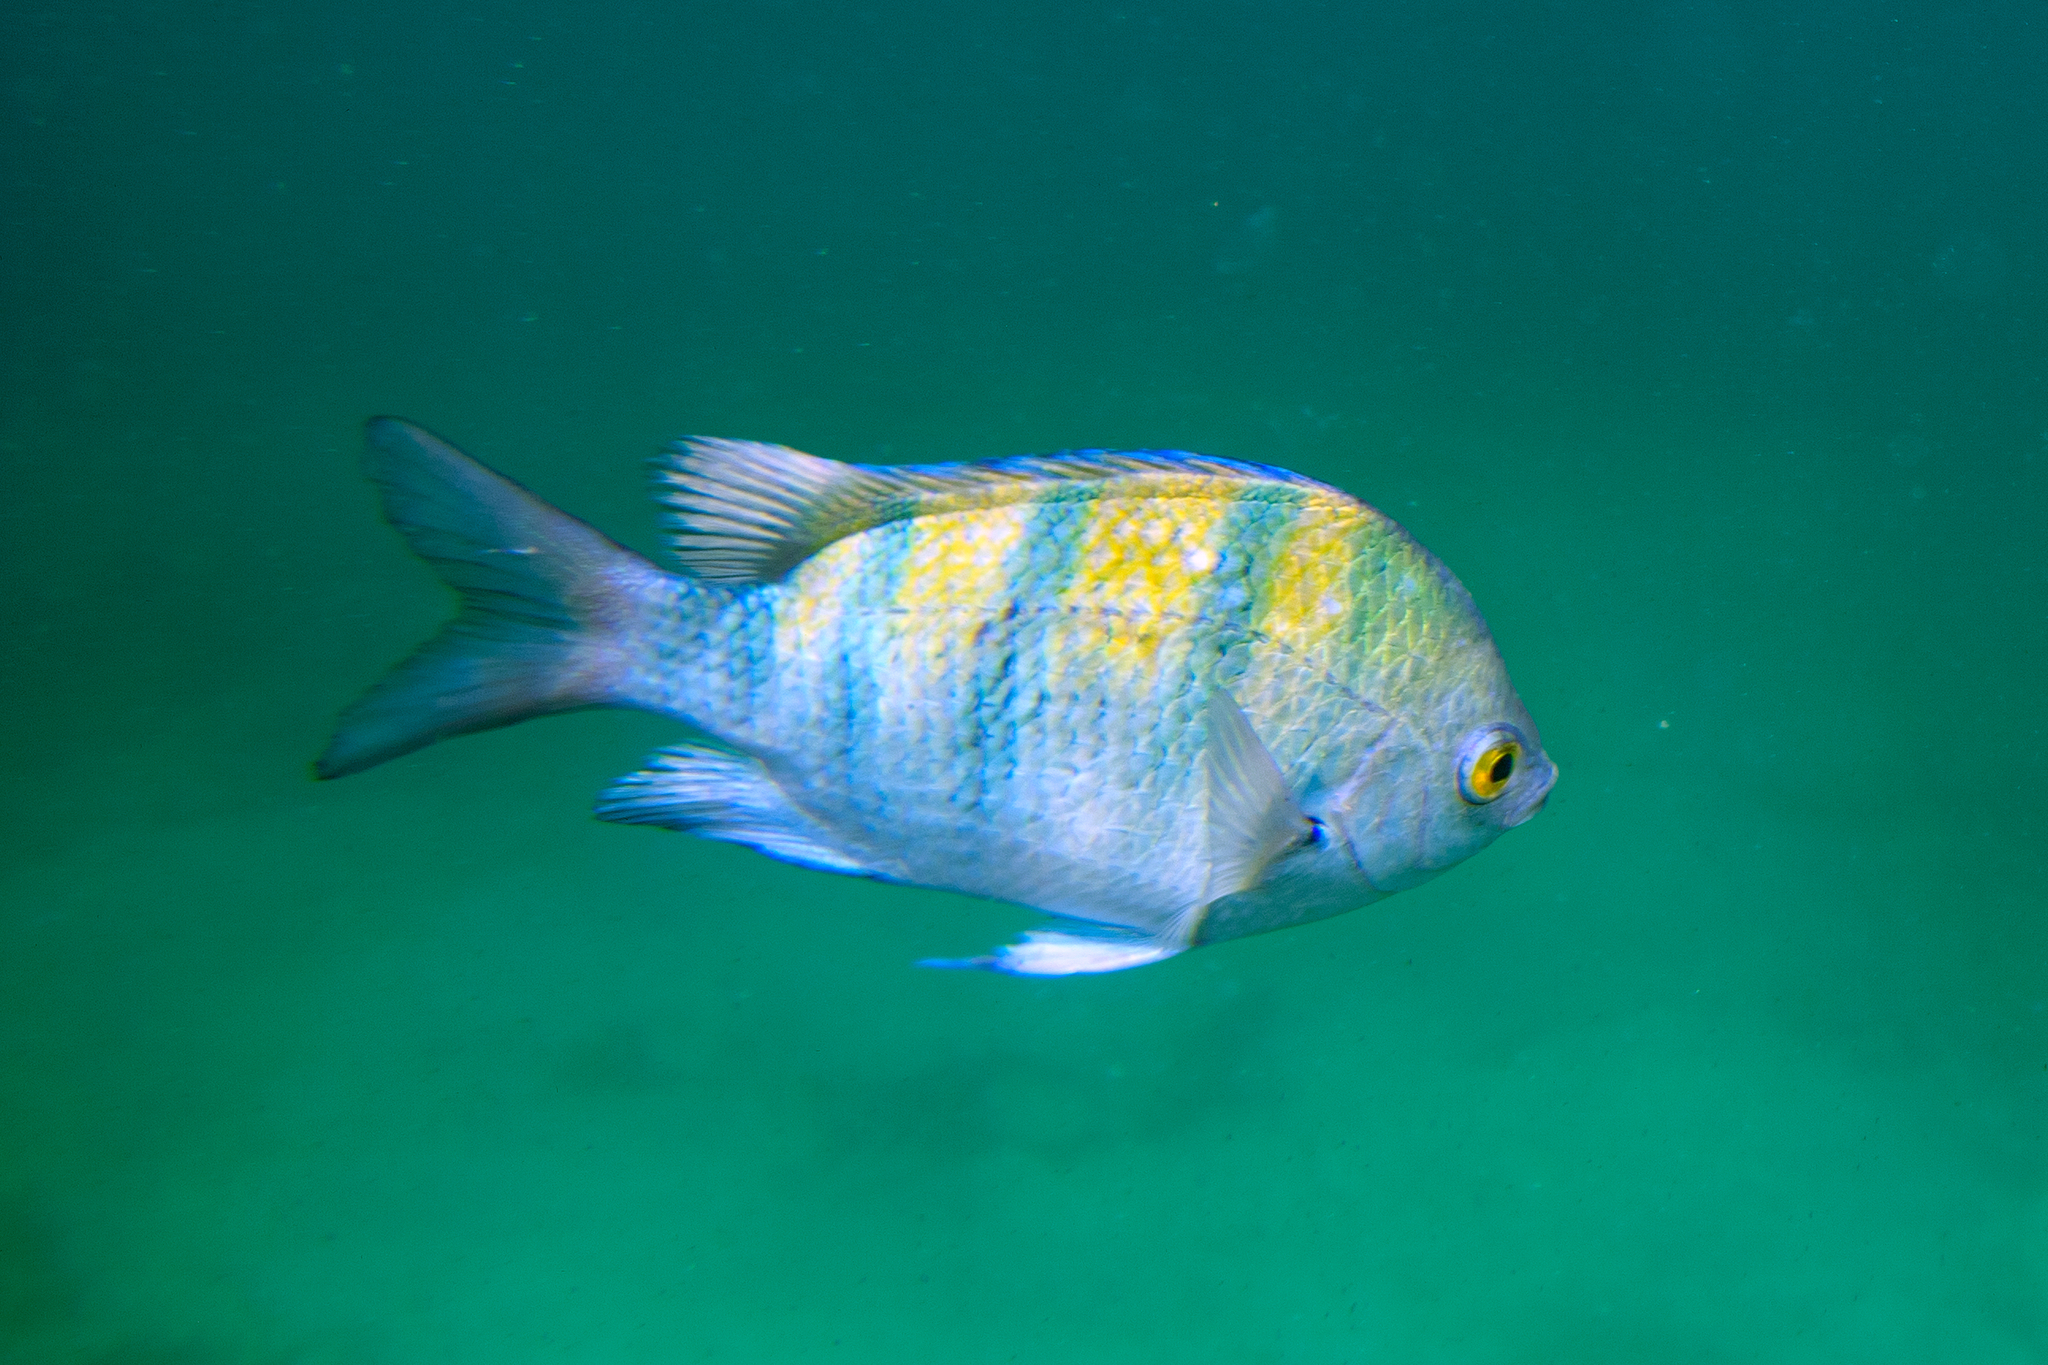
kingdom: Animalia
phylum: Chordata
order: Perciformes
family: Pomacentridae
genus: Abudefduf
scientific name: Abudefduf troschelii
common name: Panamic sergeant major
